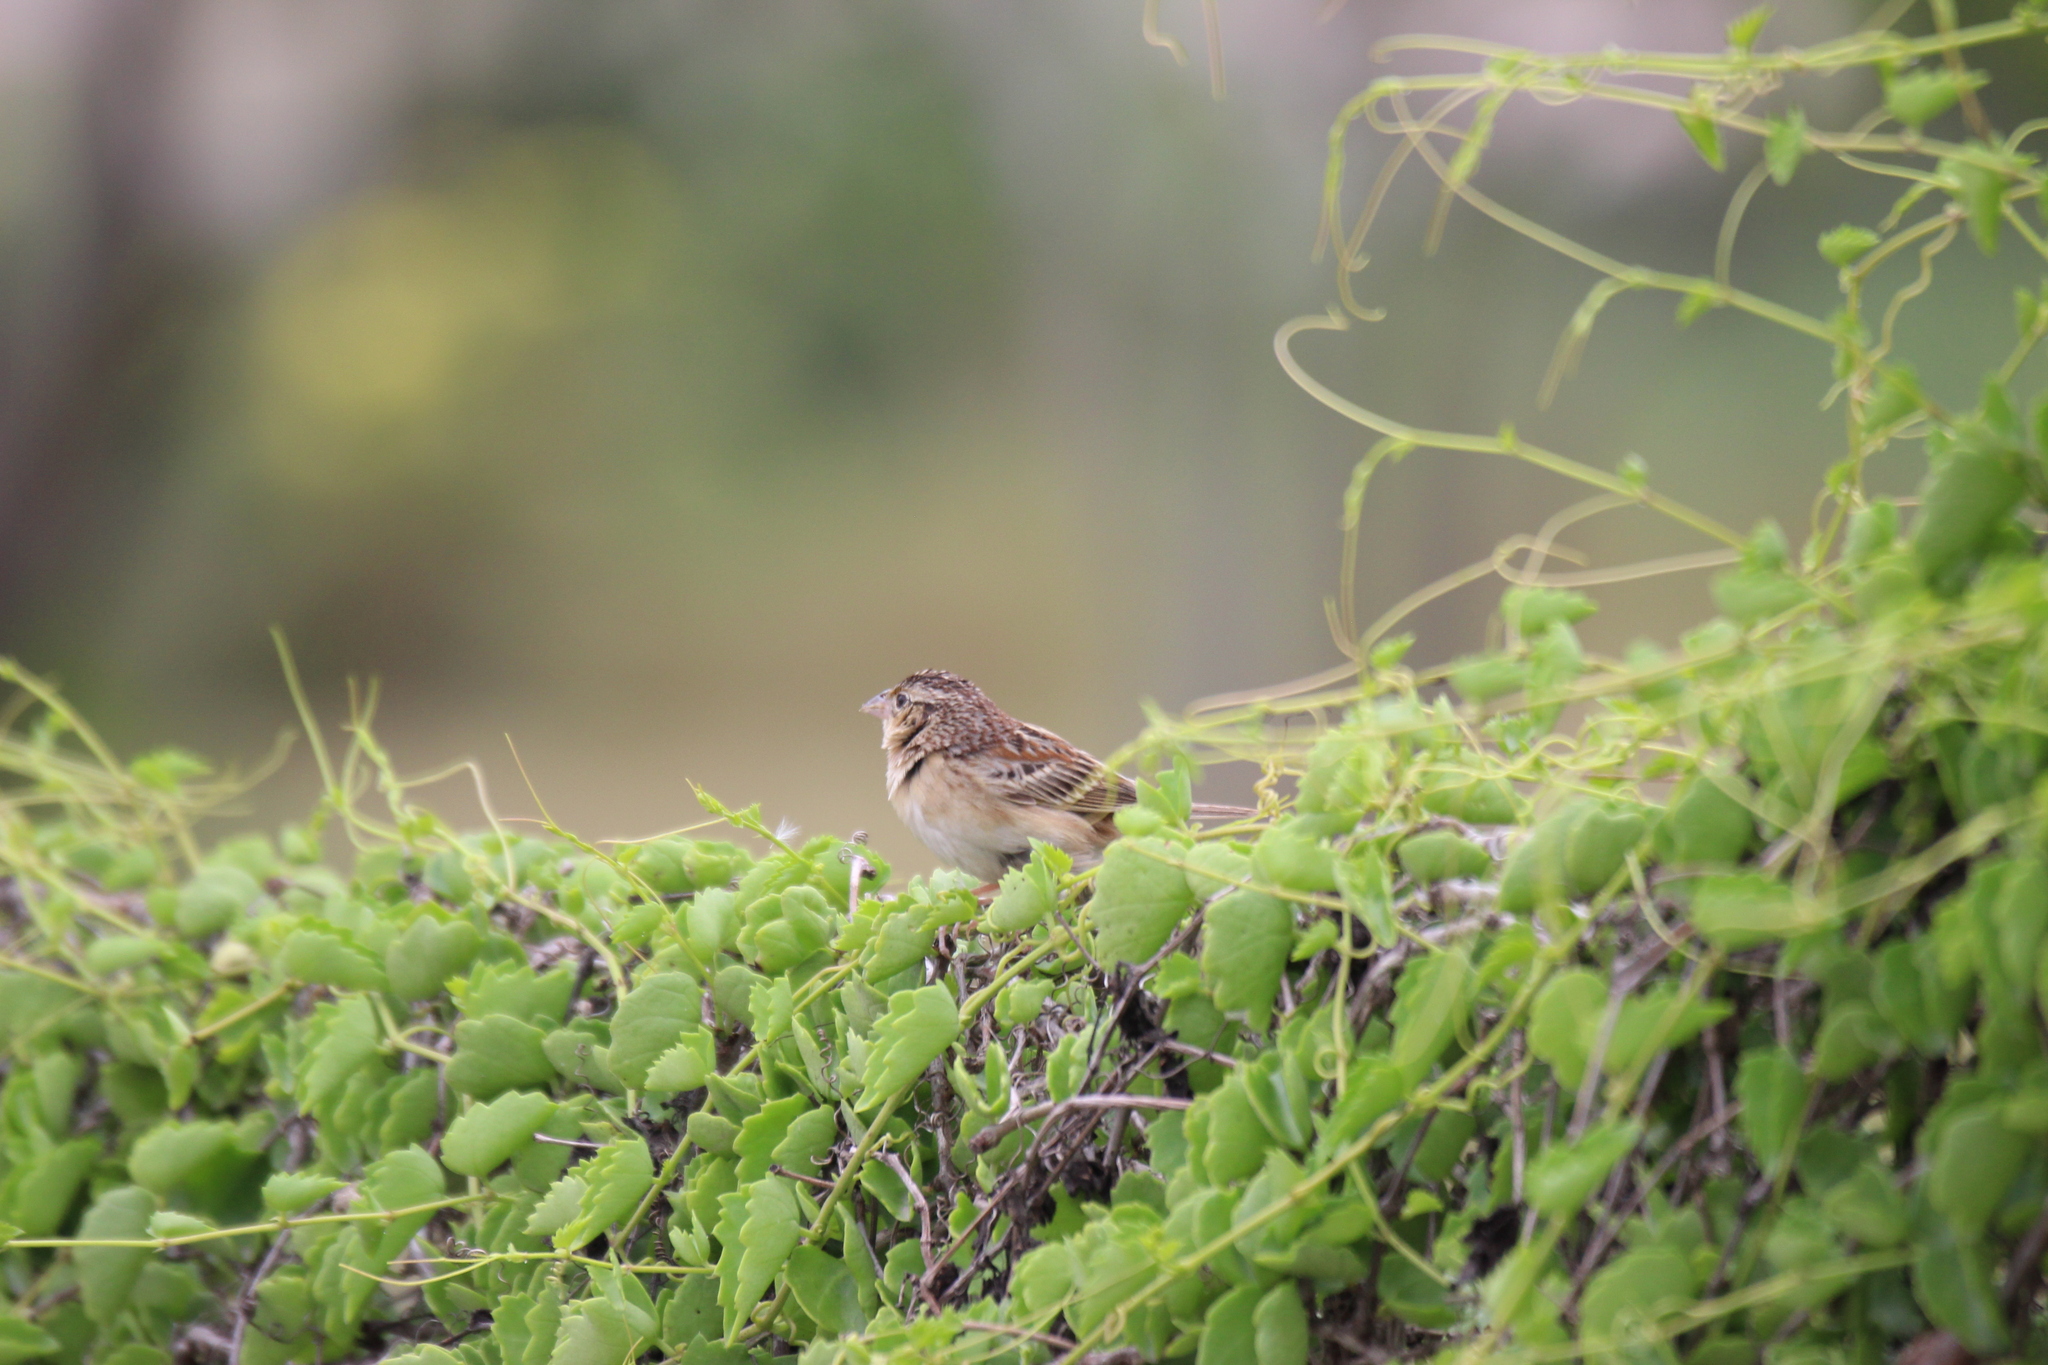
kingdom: Animalia
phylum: Chordata
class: Aves
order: Passeriformes
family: Passerellidae
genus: Ammodramus
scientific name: Ammodramus savannarum
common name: Grasshopper sparrow
